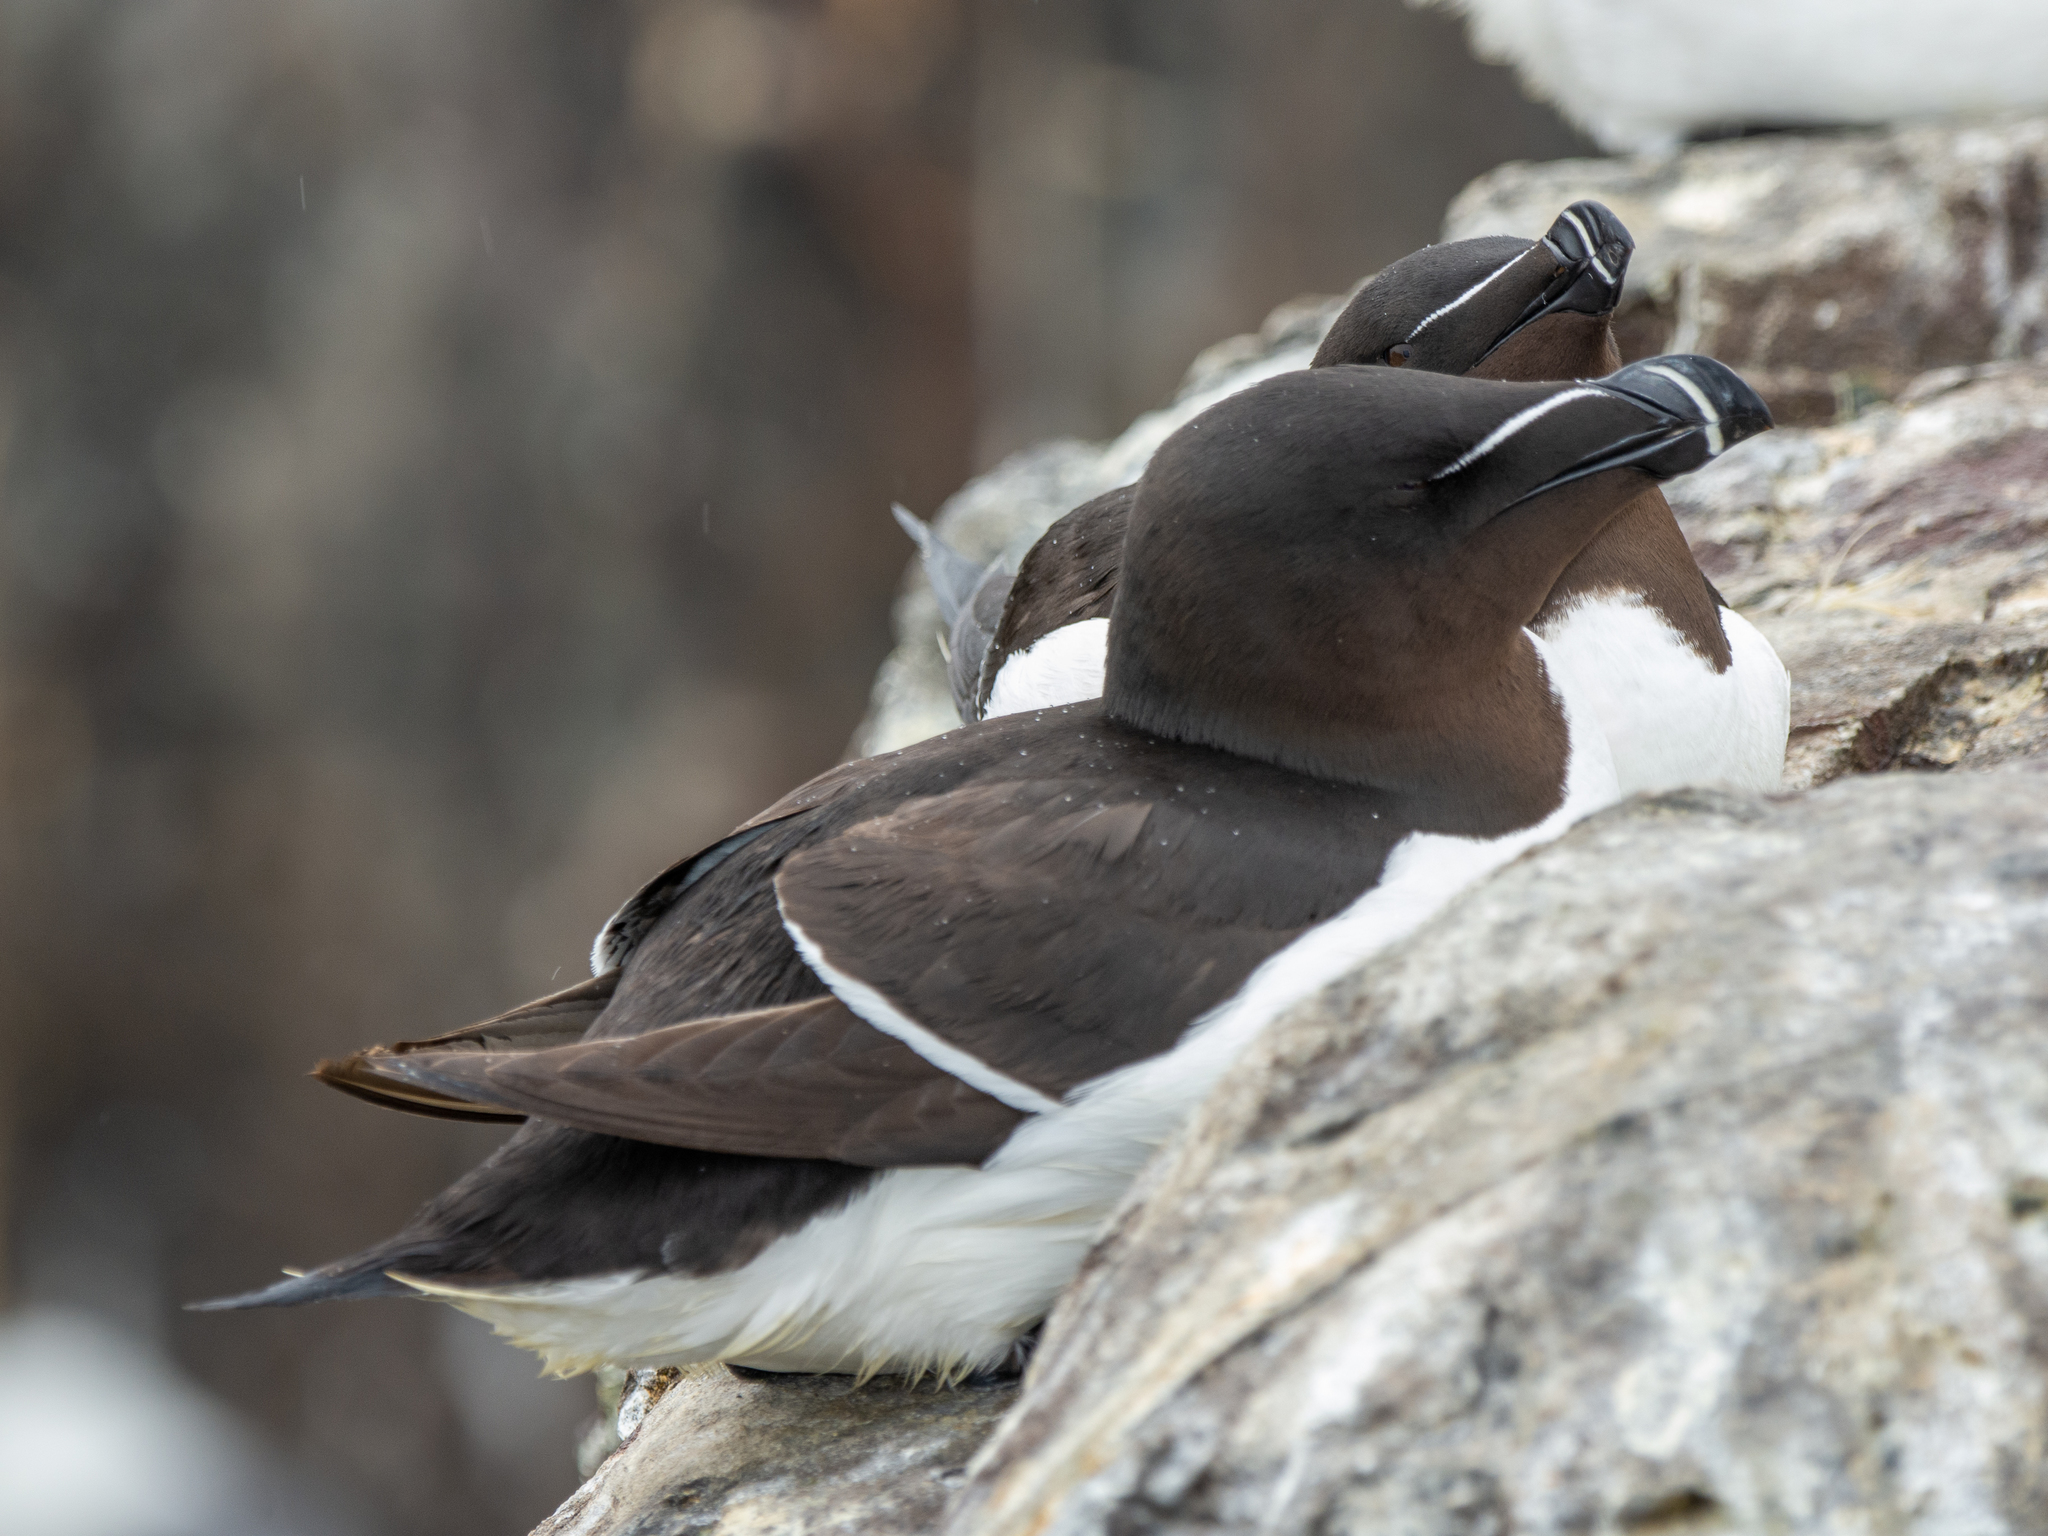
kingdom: Animalia
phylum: Chordata
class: Aves
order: Charadriiformes
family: Alcidae
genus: Alca
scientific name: Alca torda
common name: Razorbill
